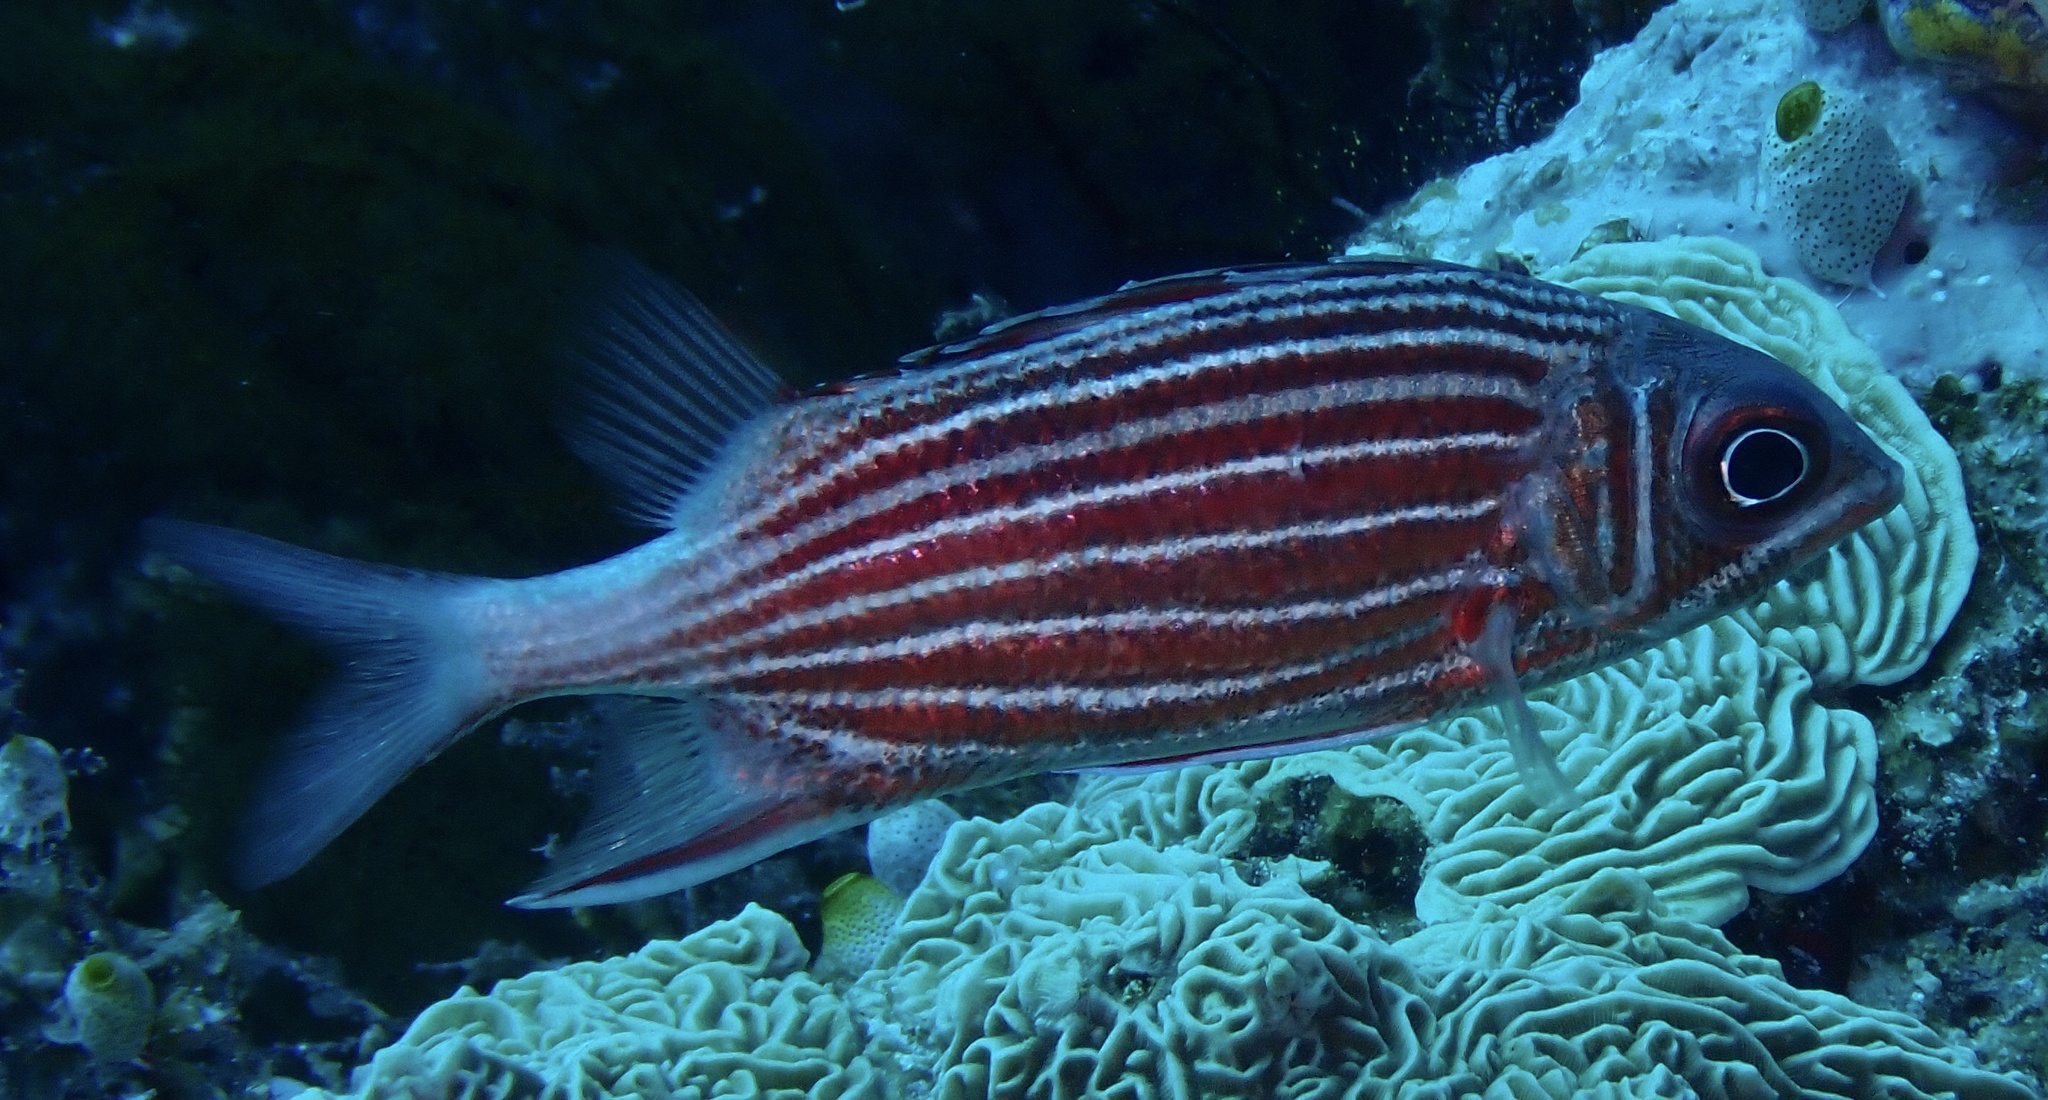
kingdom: Animalia
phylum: Chordata
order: Beryciformes
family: Holocentridae
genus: Sargocentron
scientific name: Sargocentron diadema
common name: Crown squirrelfish
